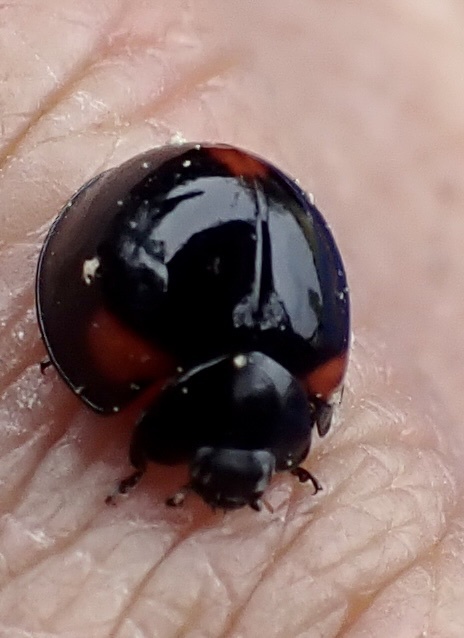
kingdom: Animalia
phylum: Arthropoda
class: Insecta
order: Coleoptera
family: Coccinellidae
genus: Axion
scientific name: Axion tripustulatum
